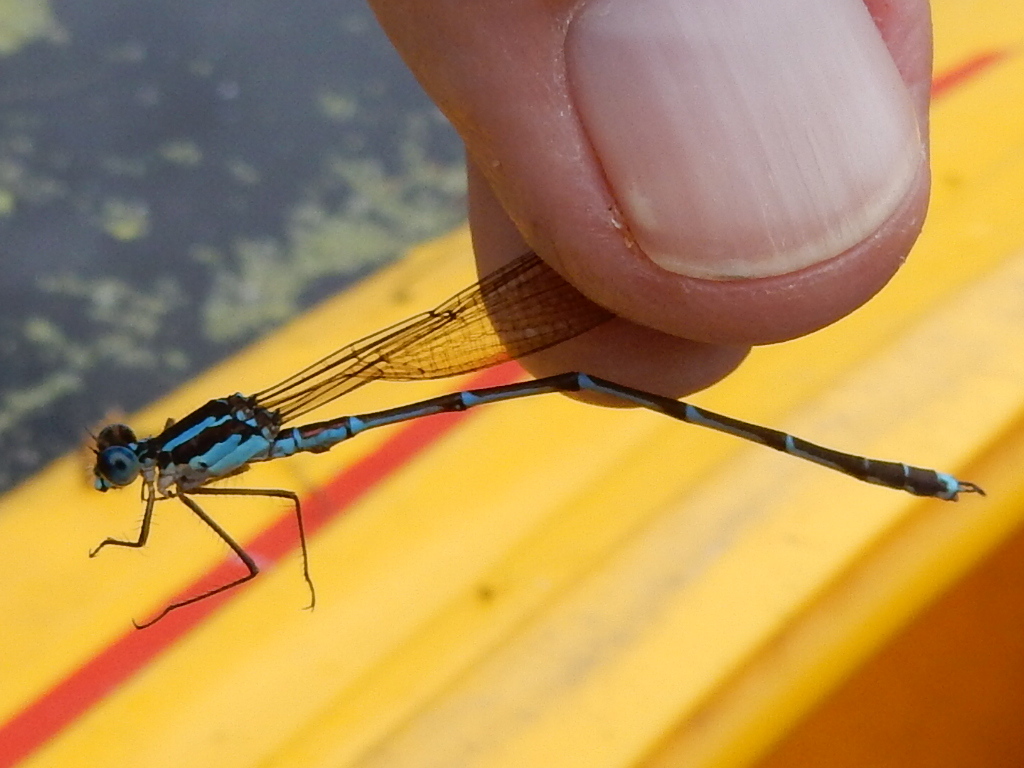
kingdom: Animalia
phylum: Arthropoda
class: Insecta
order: Odonata
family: Lestidae
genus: Austrolestes
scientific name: Austrolestes colensonis
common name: Blue damselfly
